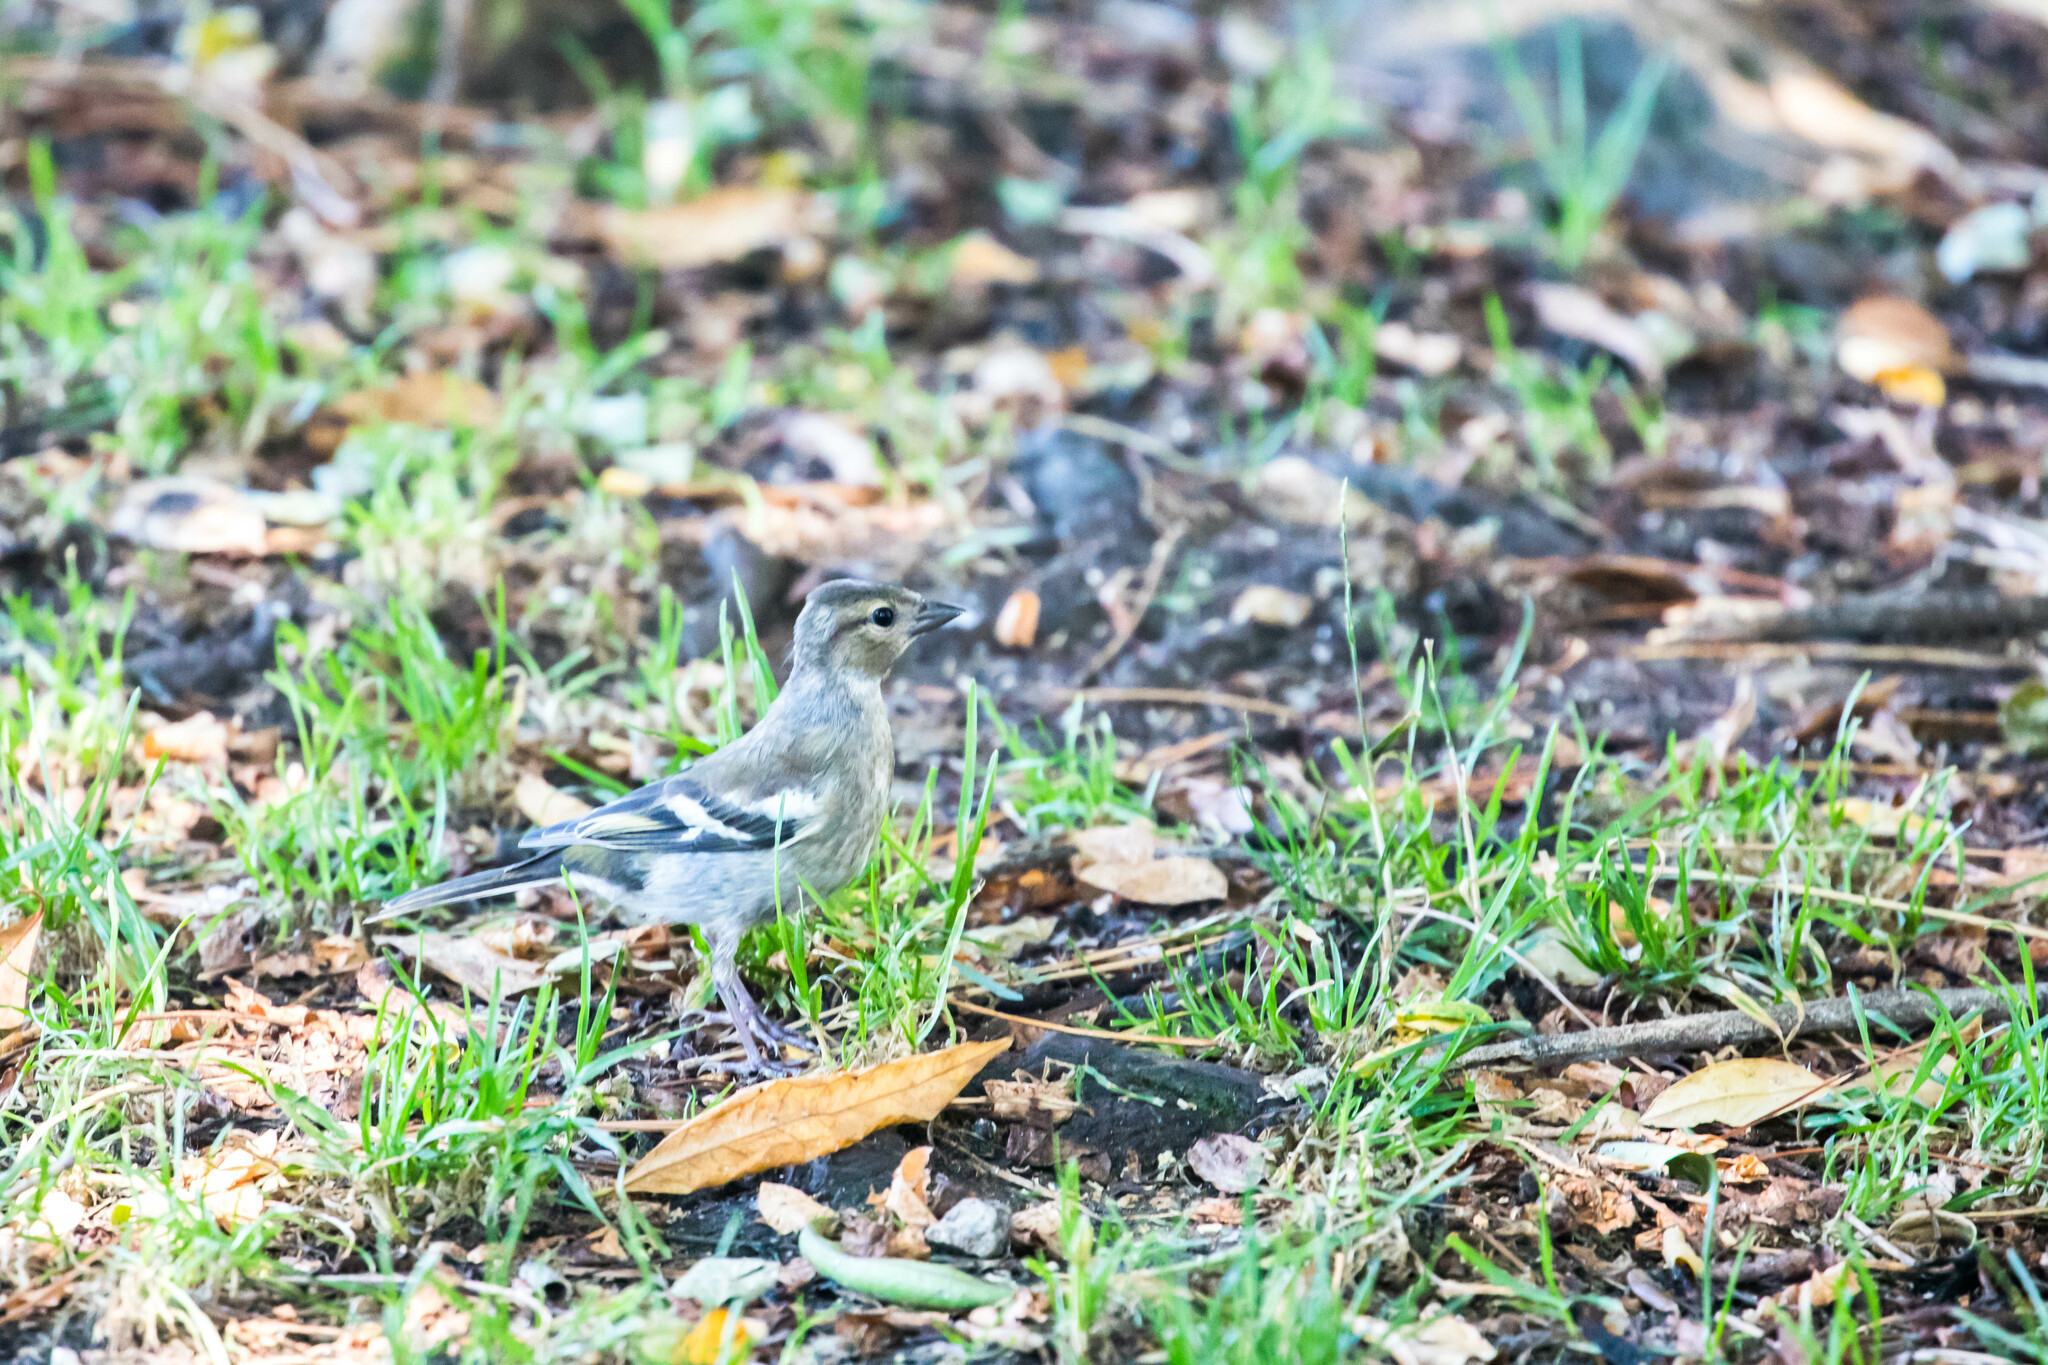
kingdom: Animalia
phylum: Chordata
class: Aves
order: Passeriformes
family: Fringillidae
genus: Fringilla
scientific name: Fringilla coelebs
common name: Common chaffinch
